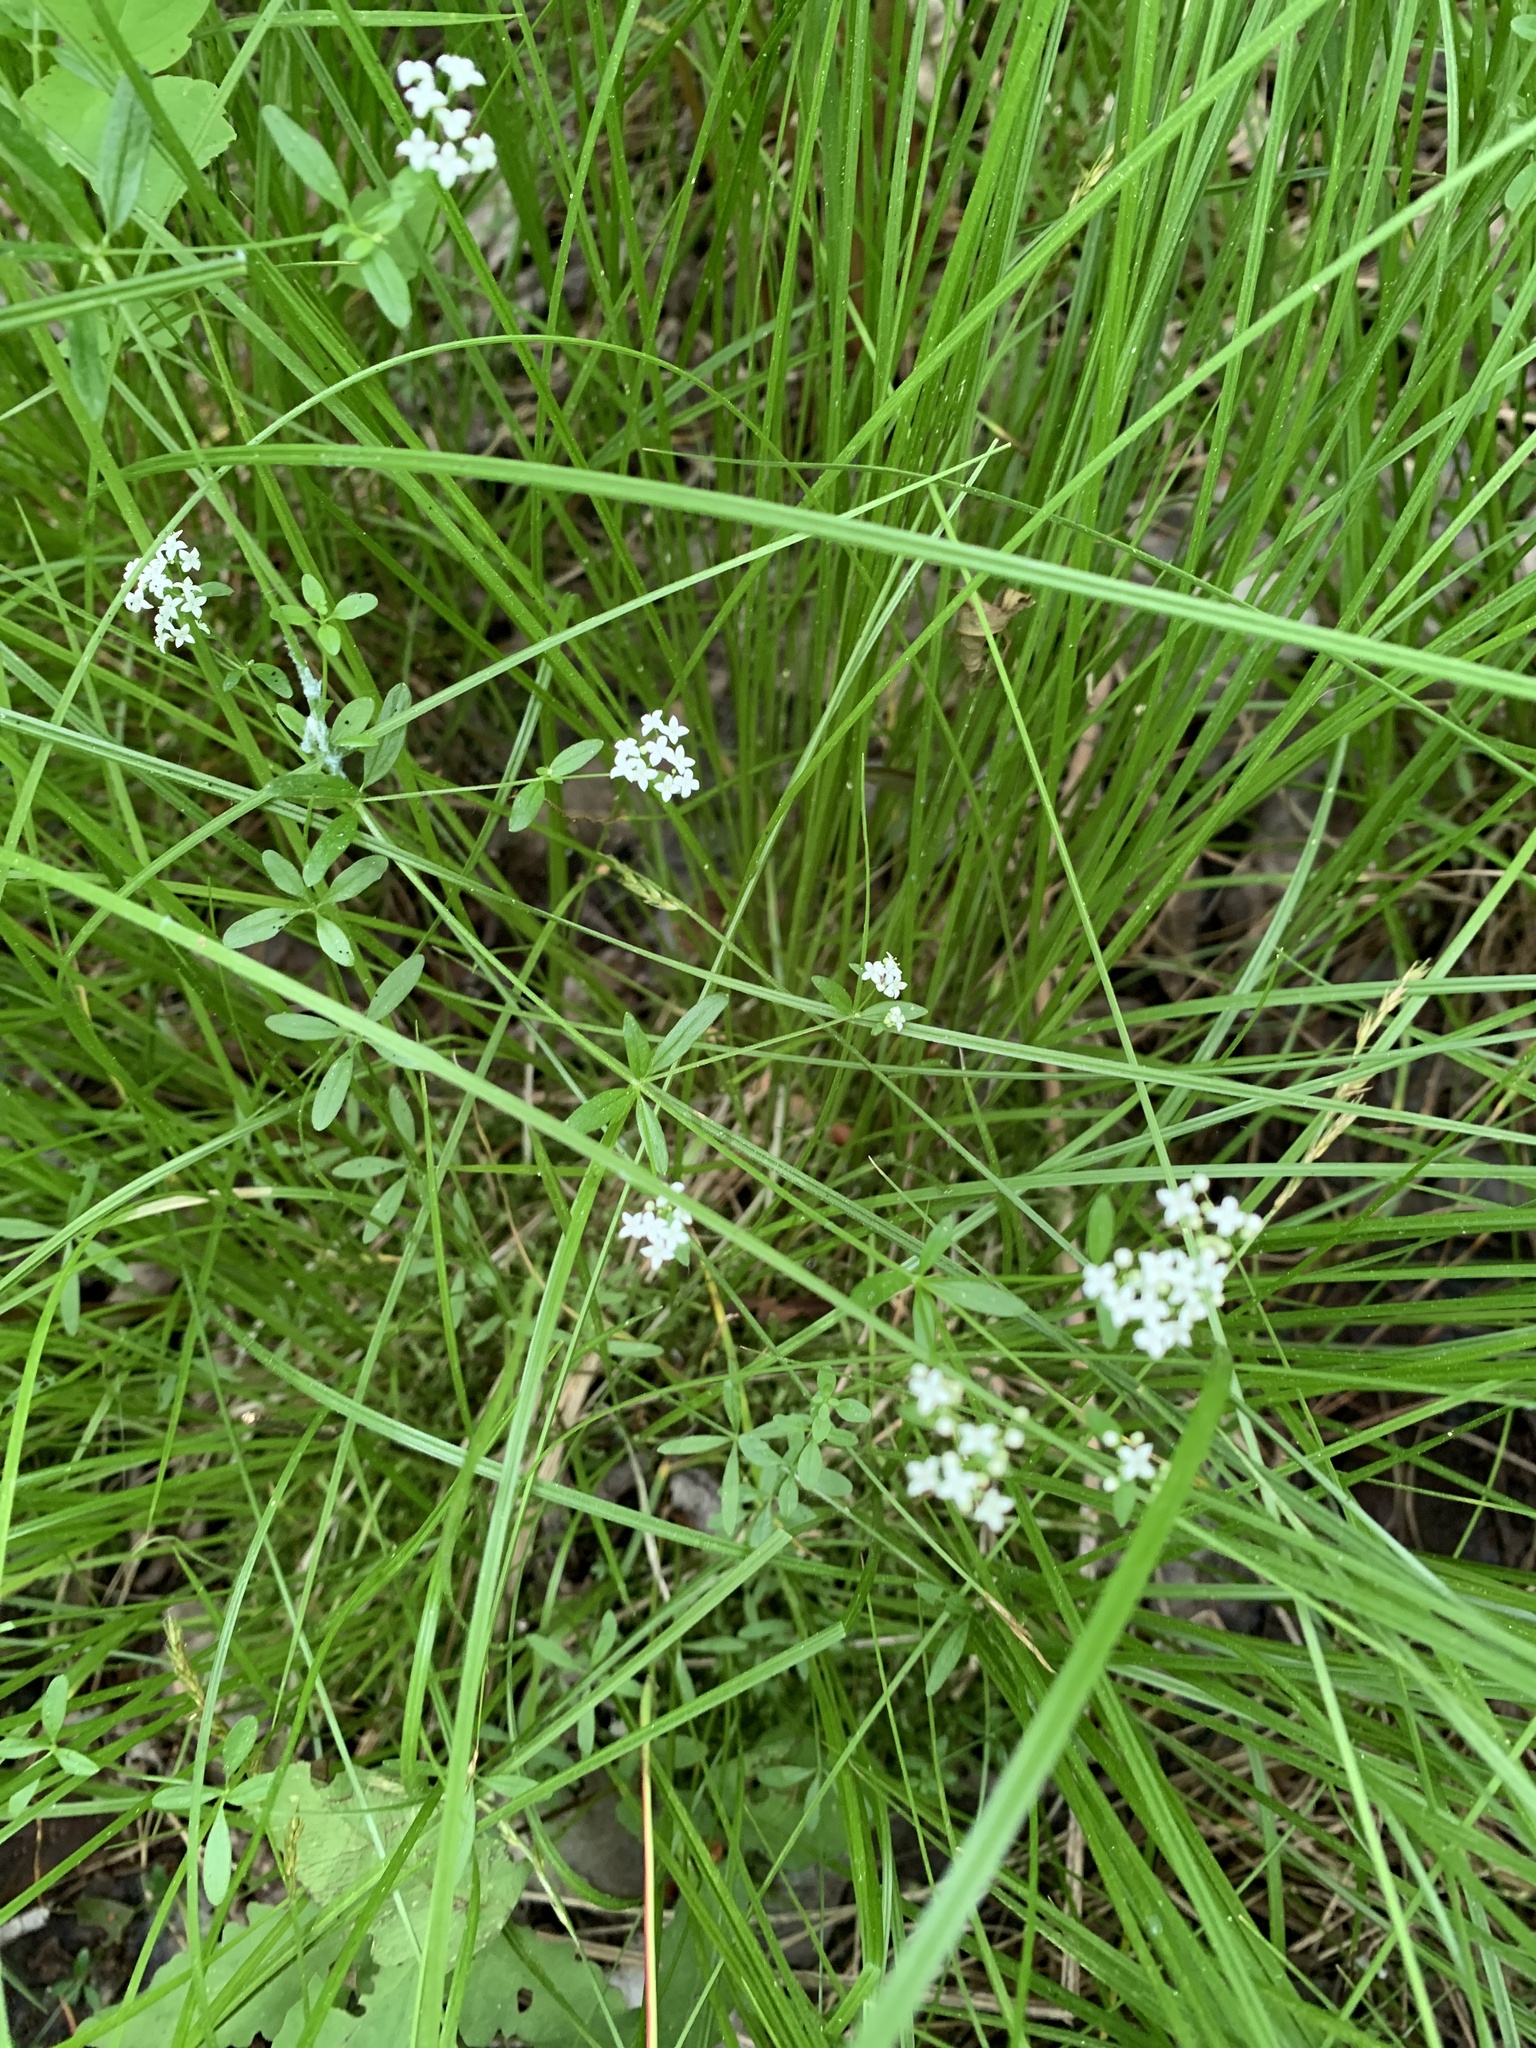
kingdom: Plantae
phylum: Tracheophyta
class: Magnoliopsida
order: Gentianales
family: Rubiaceae
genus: Galium
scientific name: Galium palustre
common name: Common marsh-bedstraw
